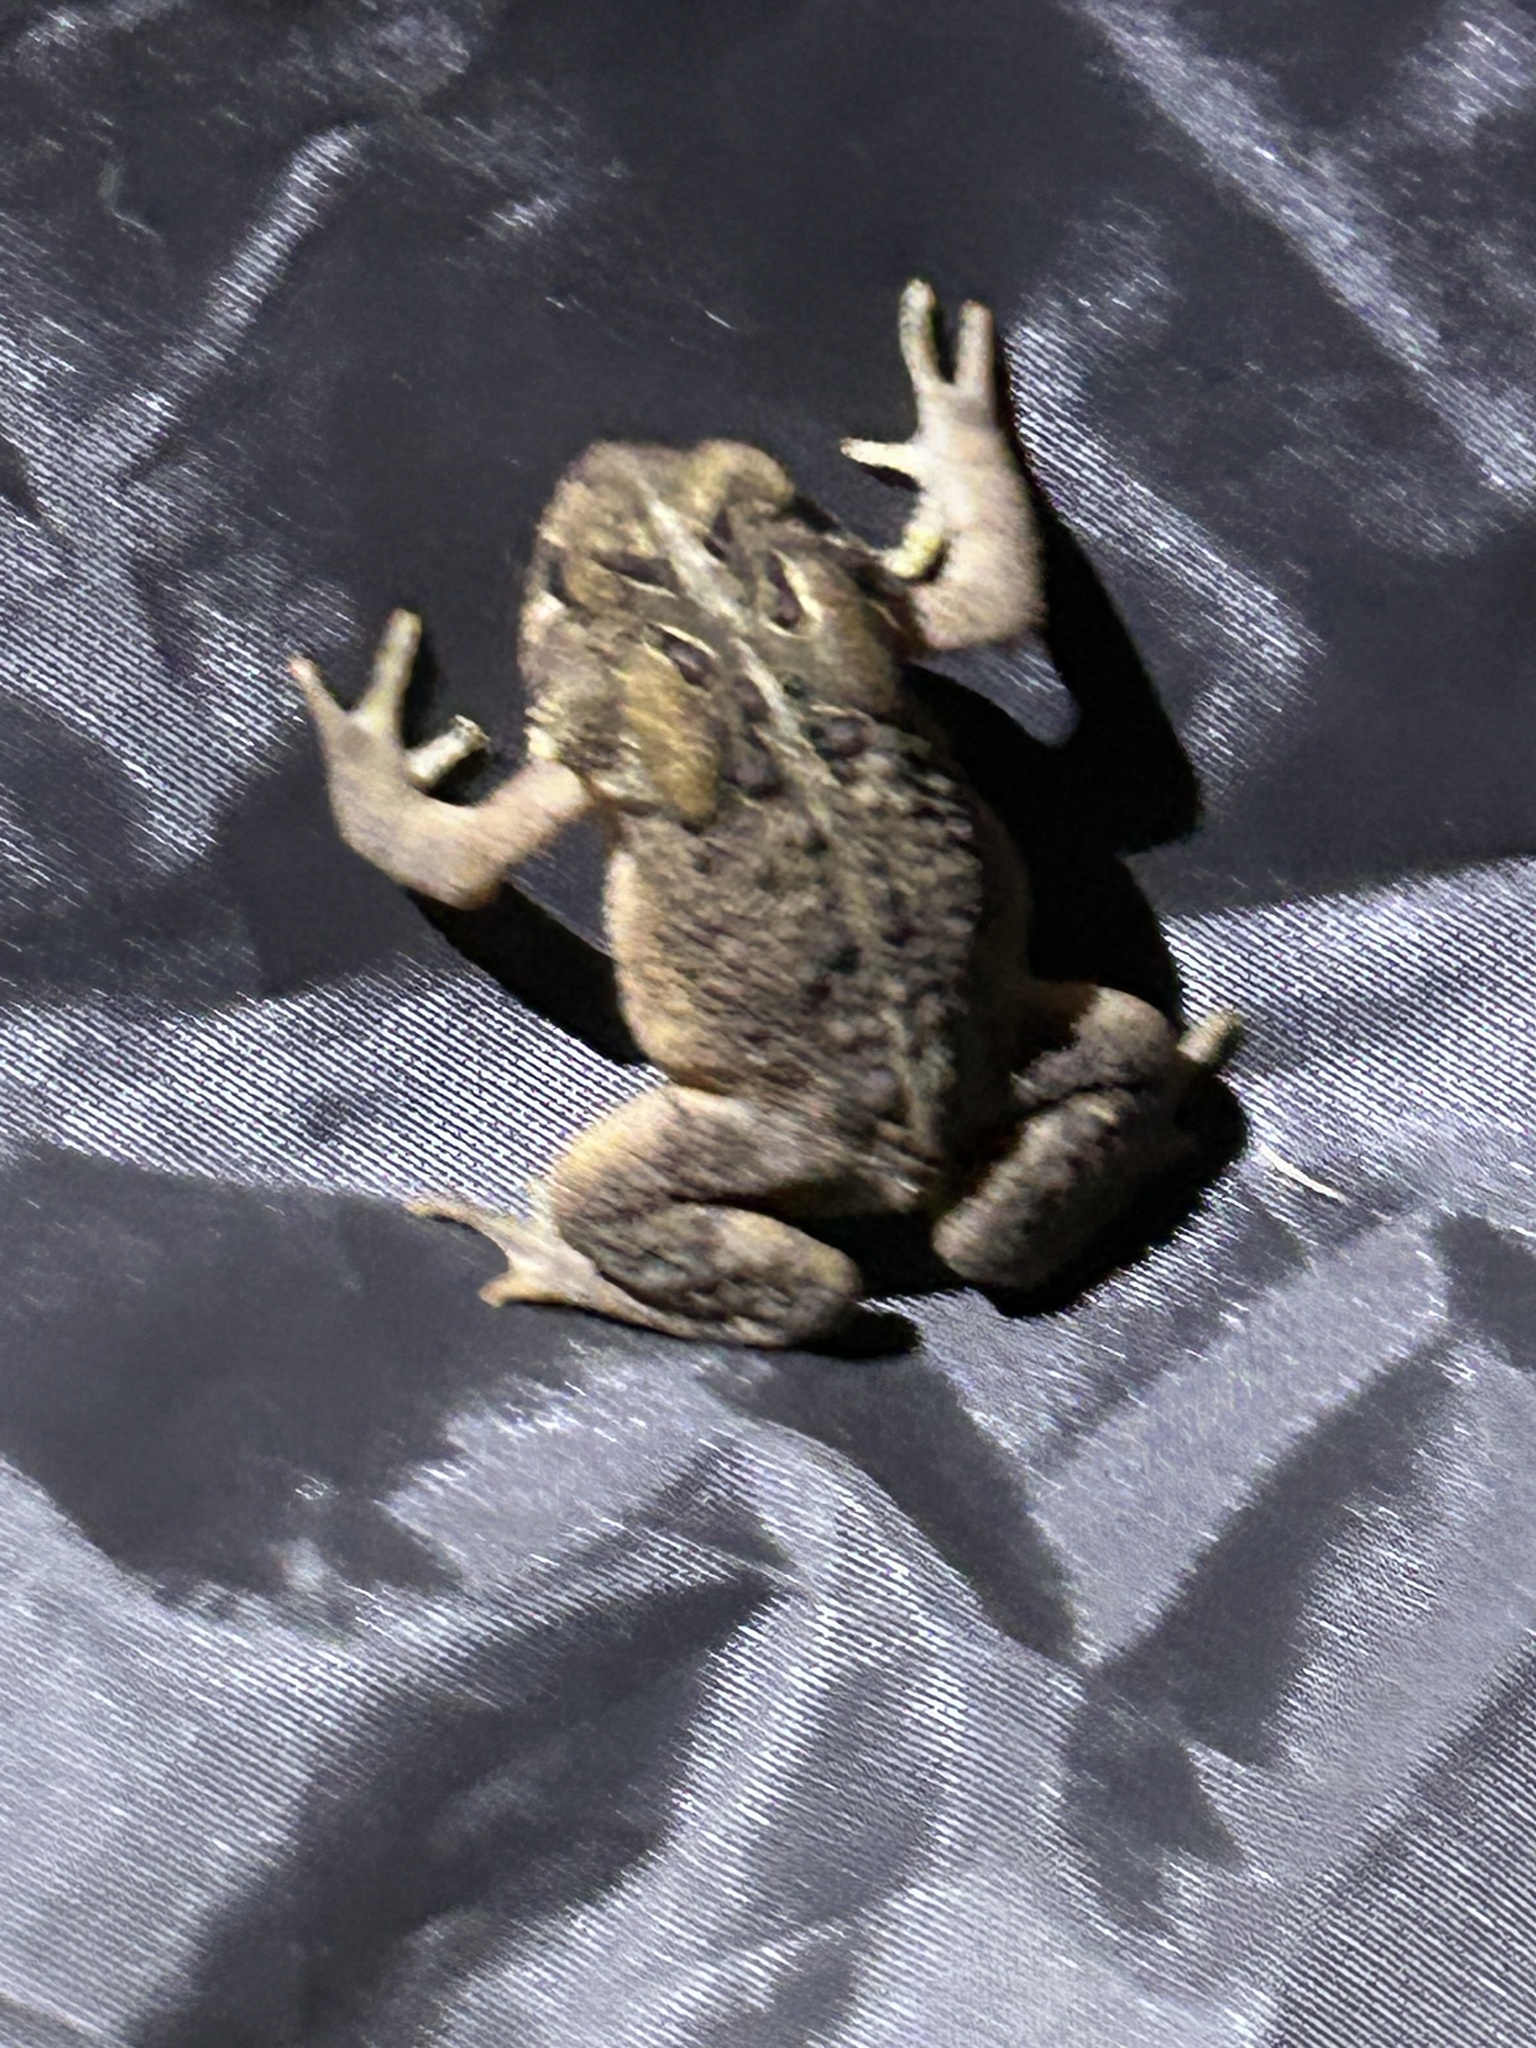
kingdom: Animalia
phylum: Chordata
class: Amphibia
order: Anura
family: Bufonidae
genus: Anaxyrus
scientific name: Anaxyrus americanus
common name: American toad
